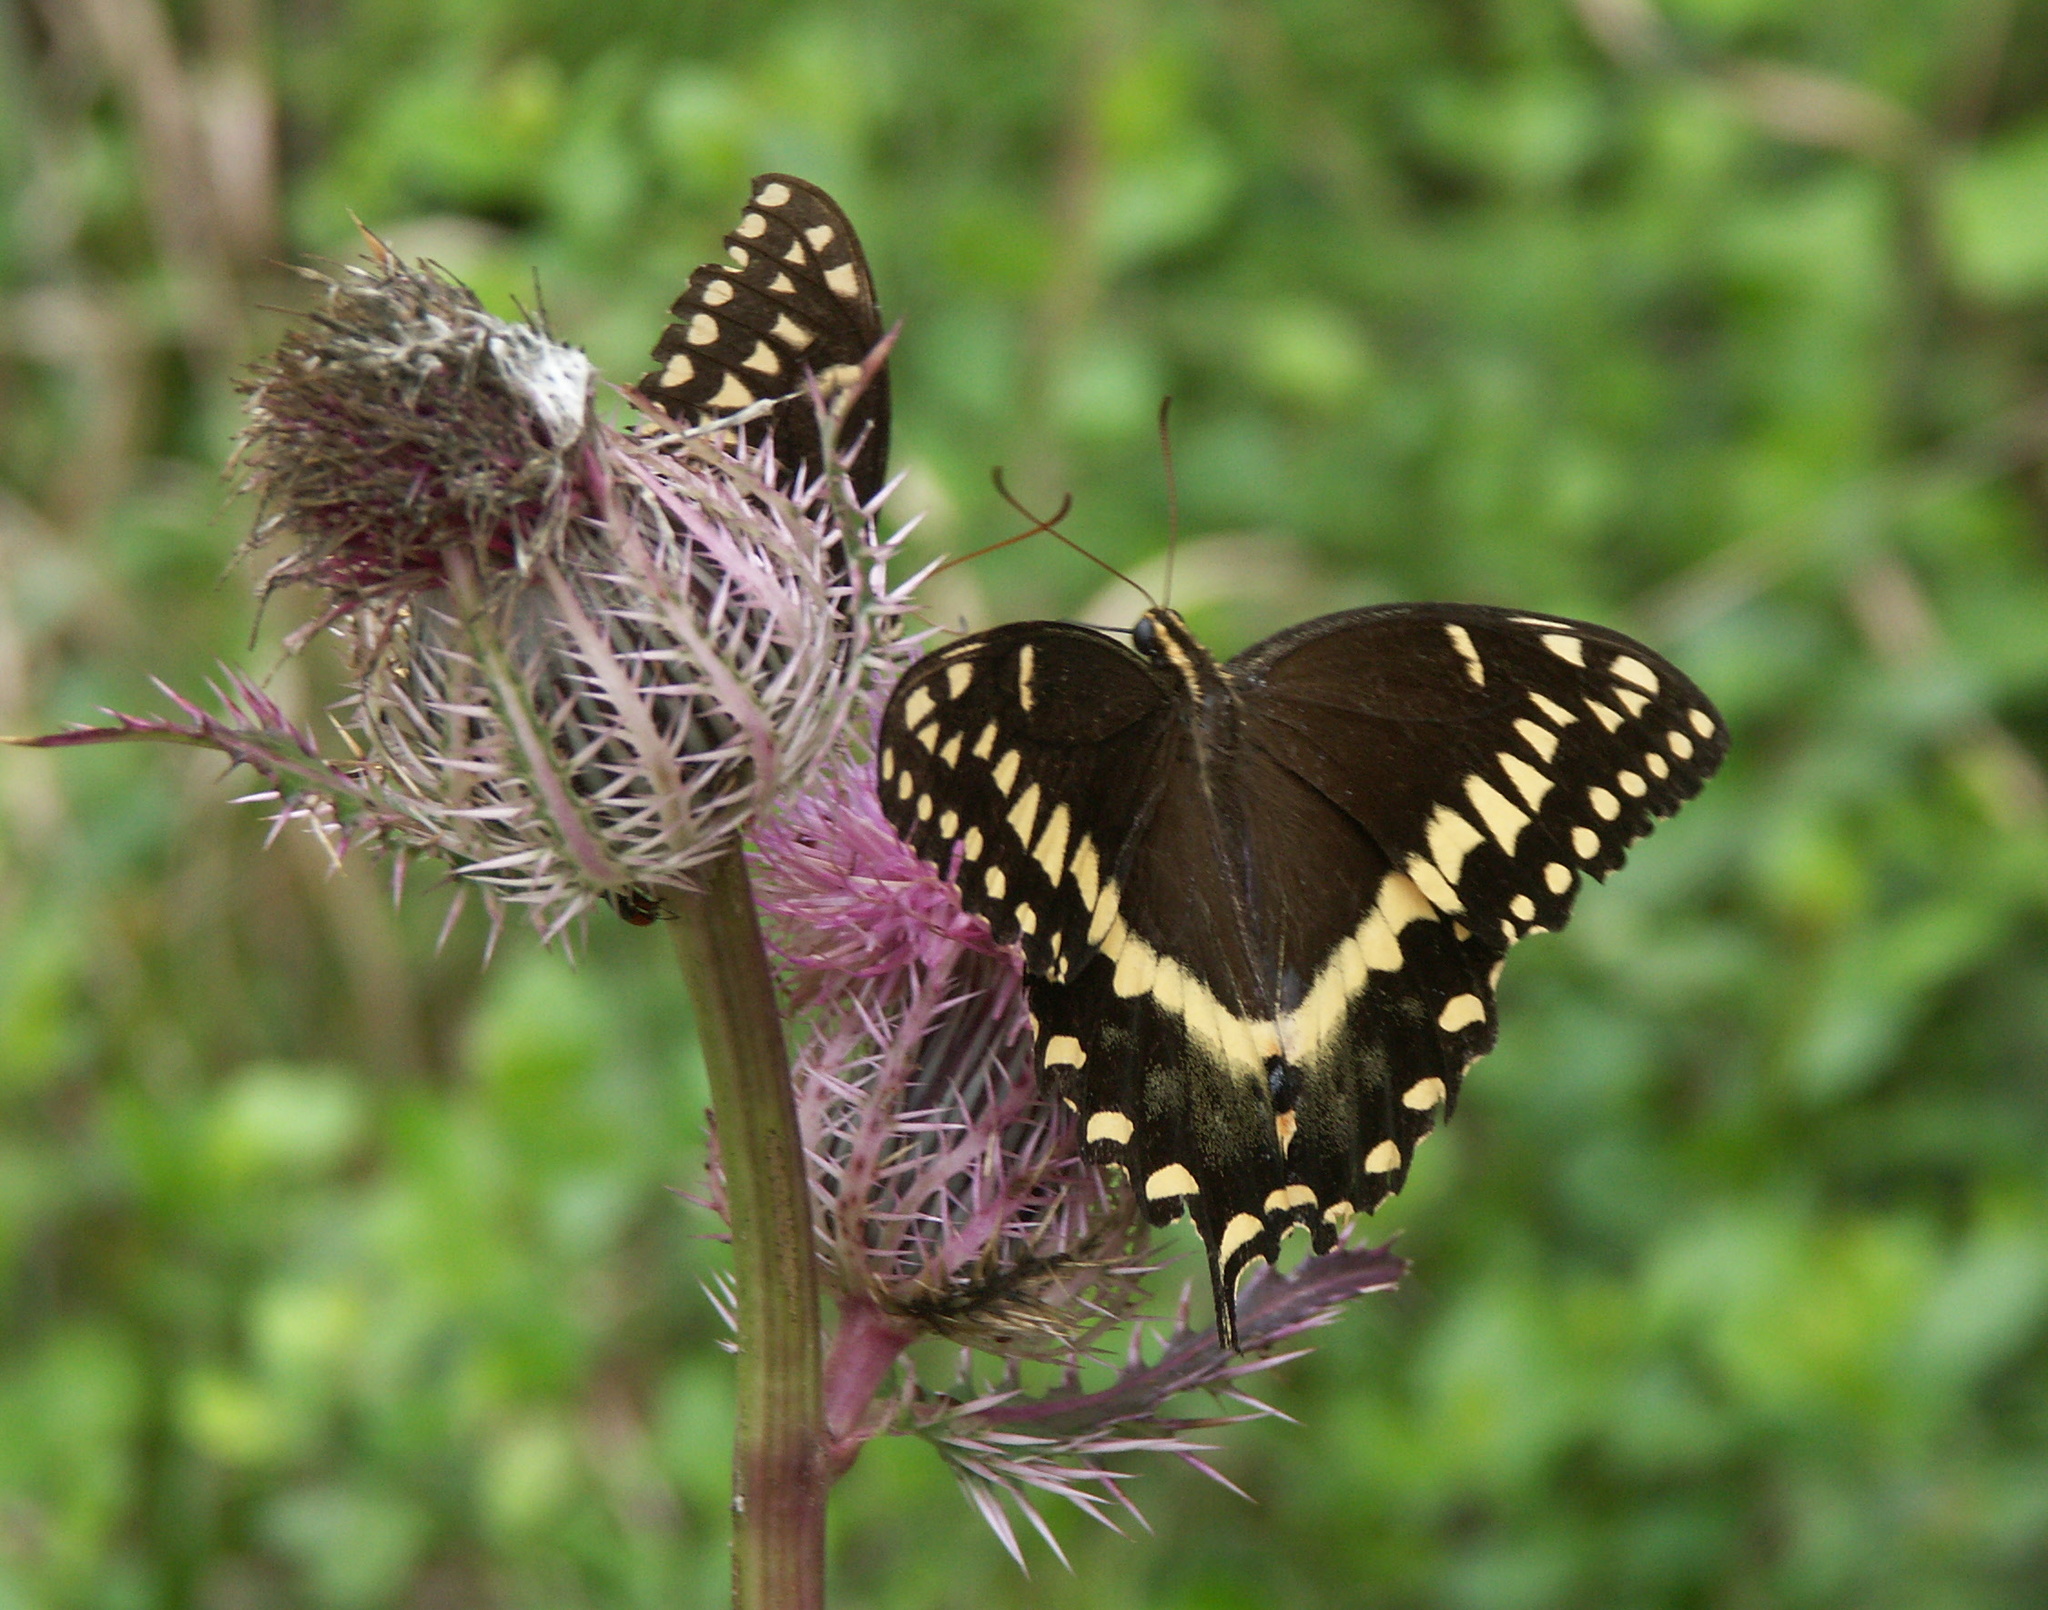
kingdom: Animalia
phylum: Arthropoda
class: Insecta
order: Lepidoptera
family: Papilionidae
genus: Papilio
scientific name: Papilio palamedes
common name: Palamedes swallowtail
